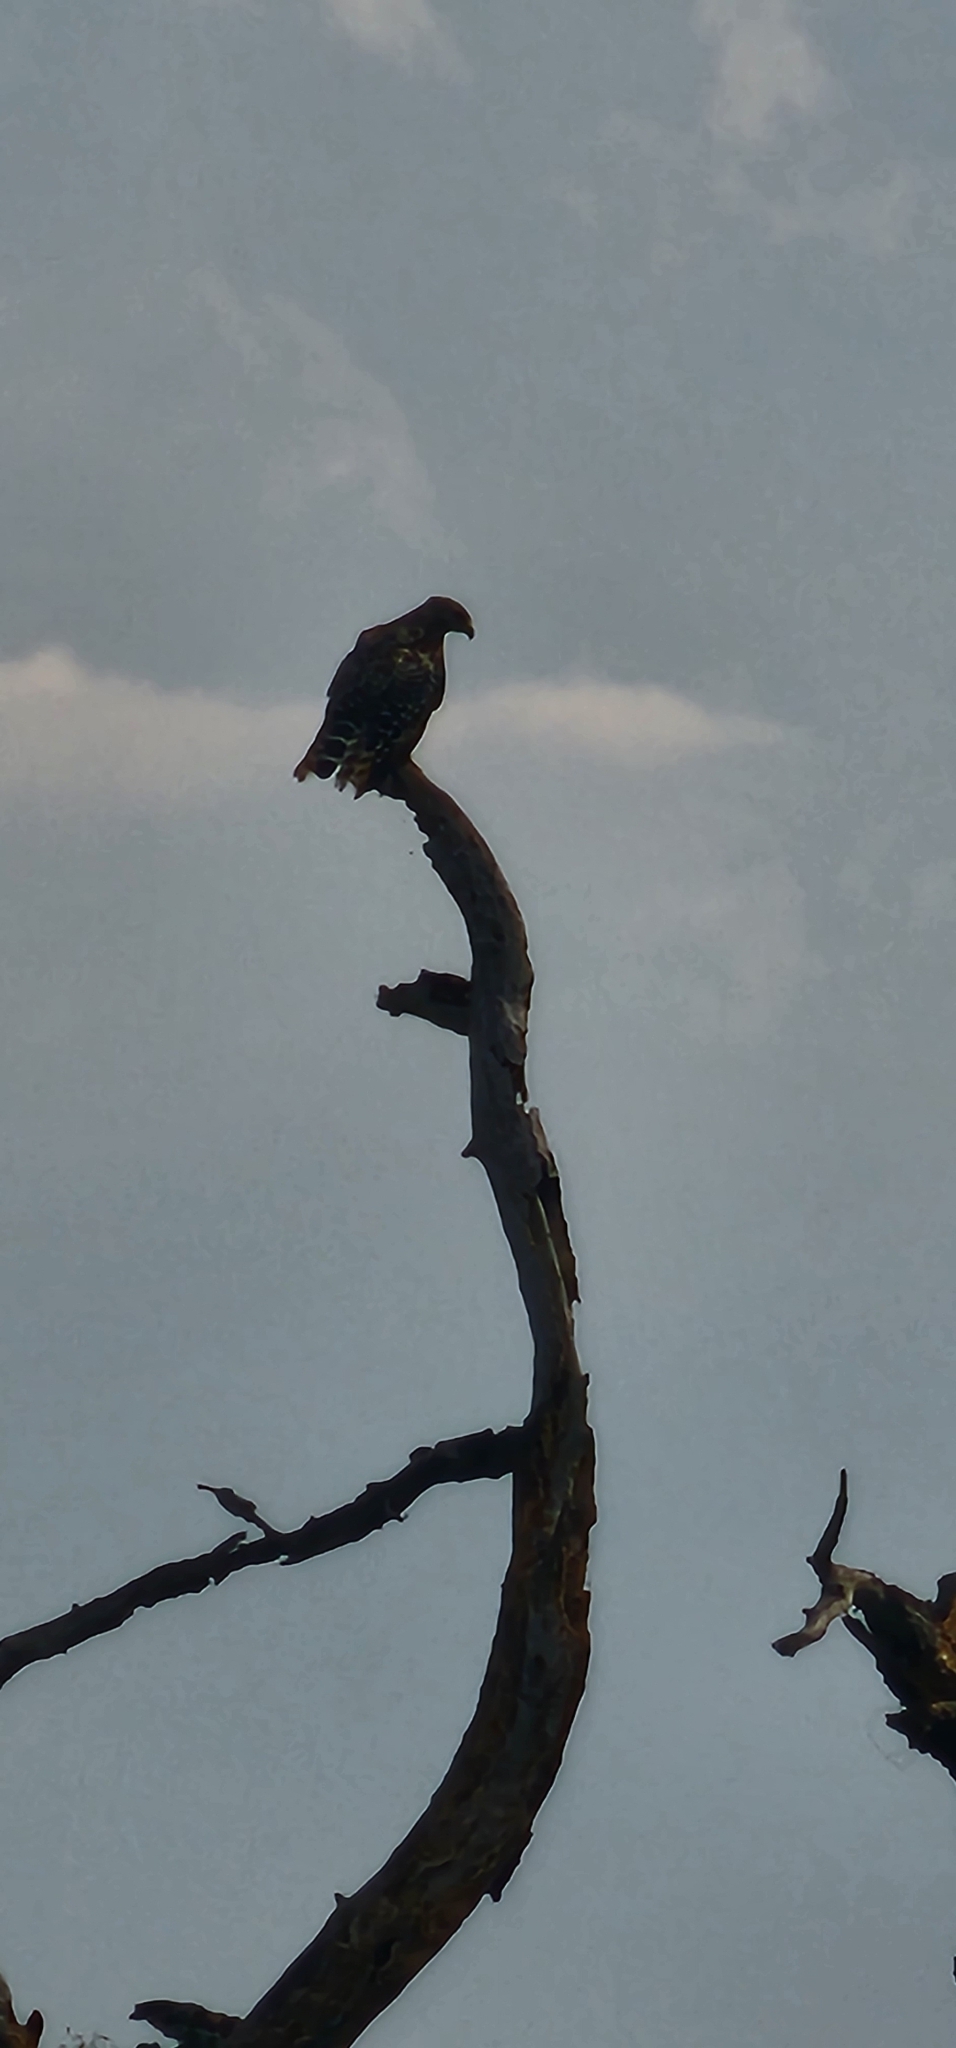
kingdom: Animalia
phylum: Chordata
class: Aves
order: Accipitriformes
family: Accipitridae
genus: Buteo
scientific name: Buteo lineatus
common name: Red-shouldered hawk
